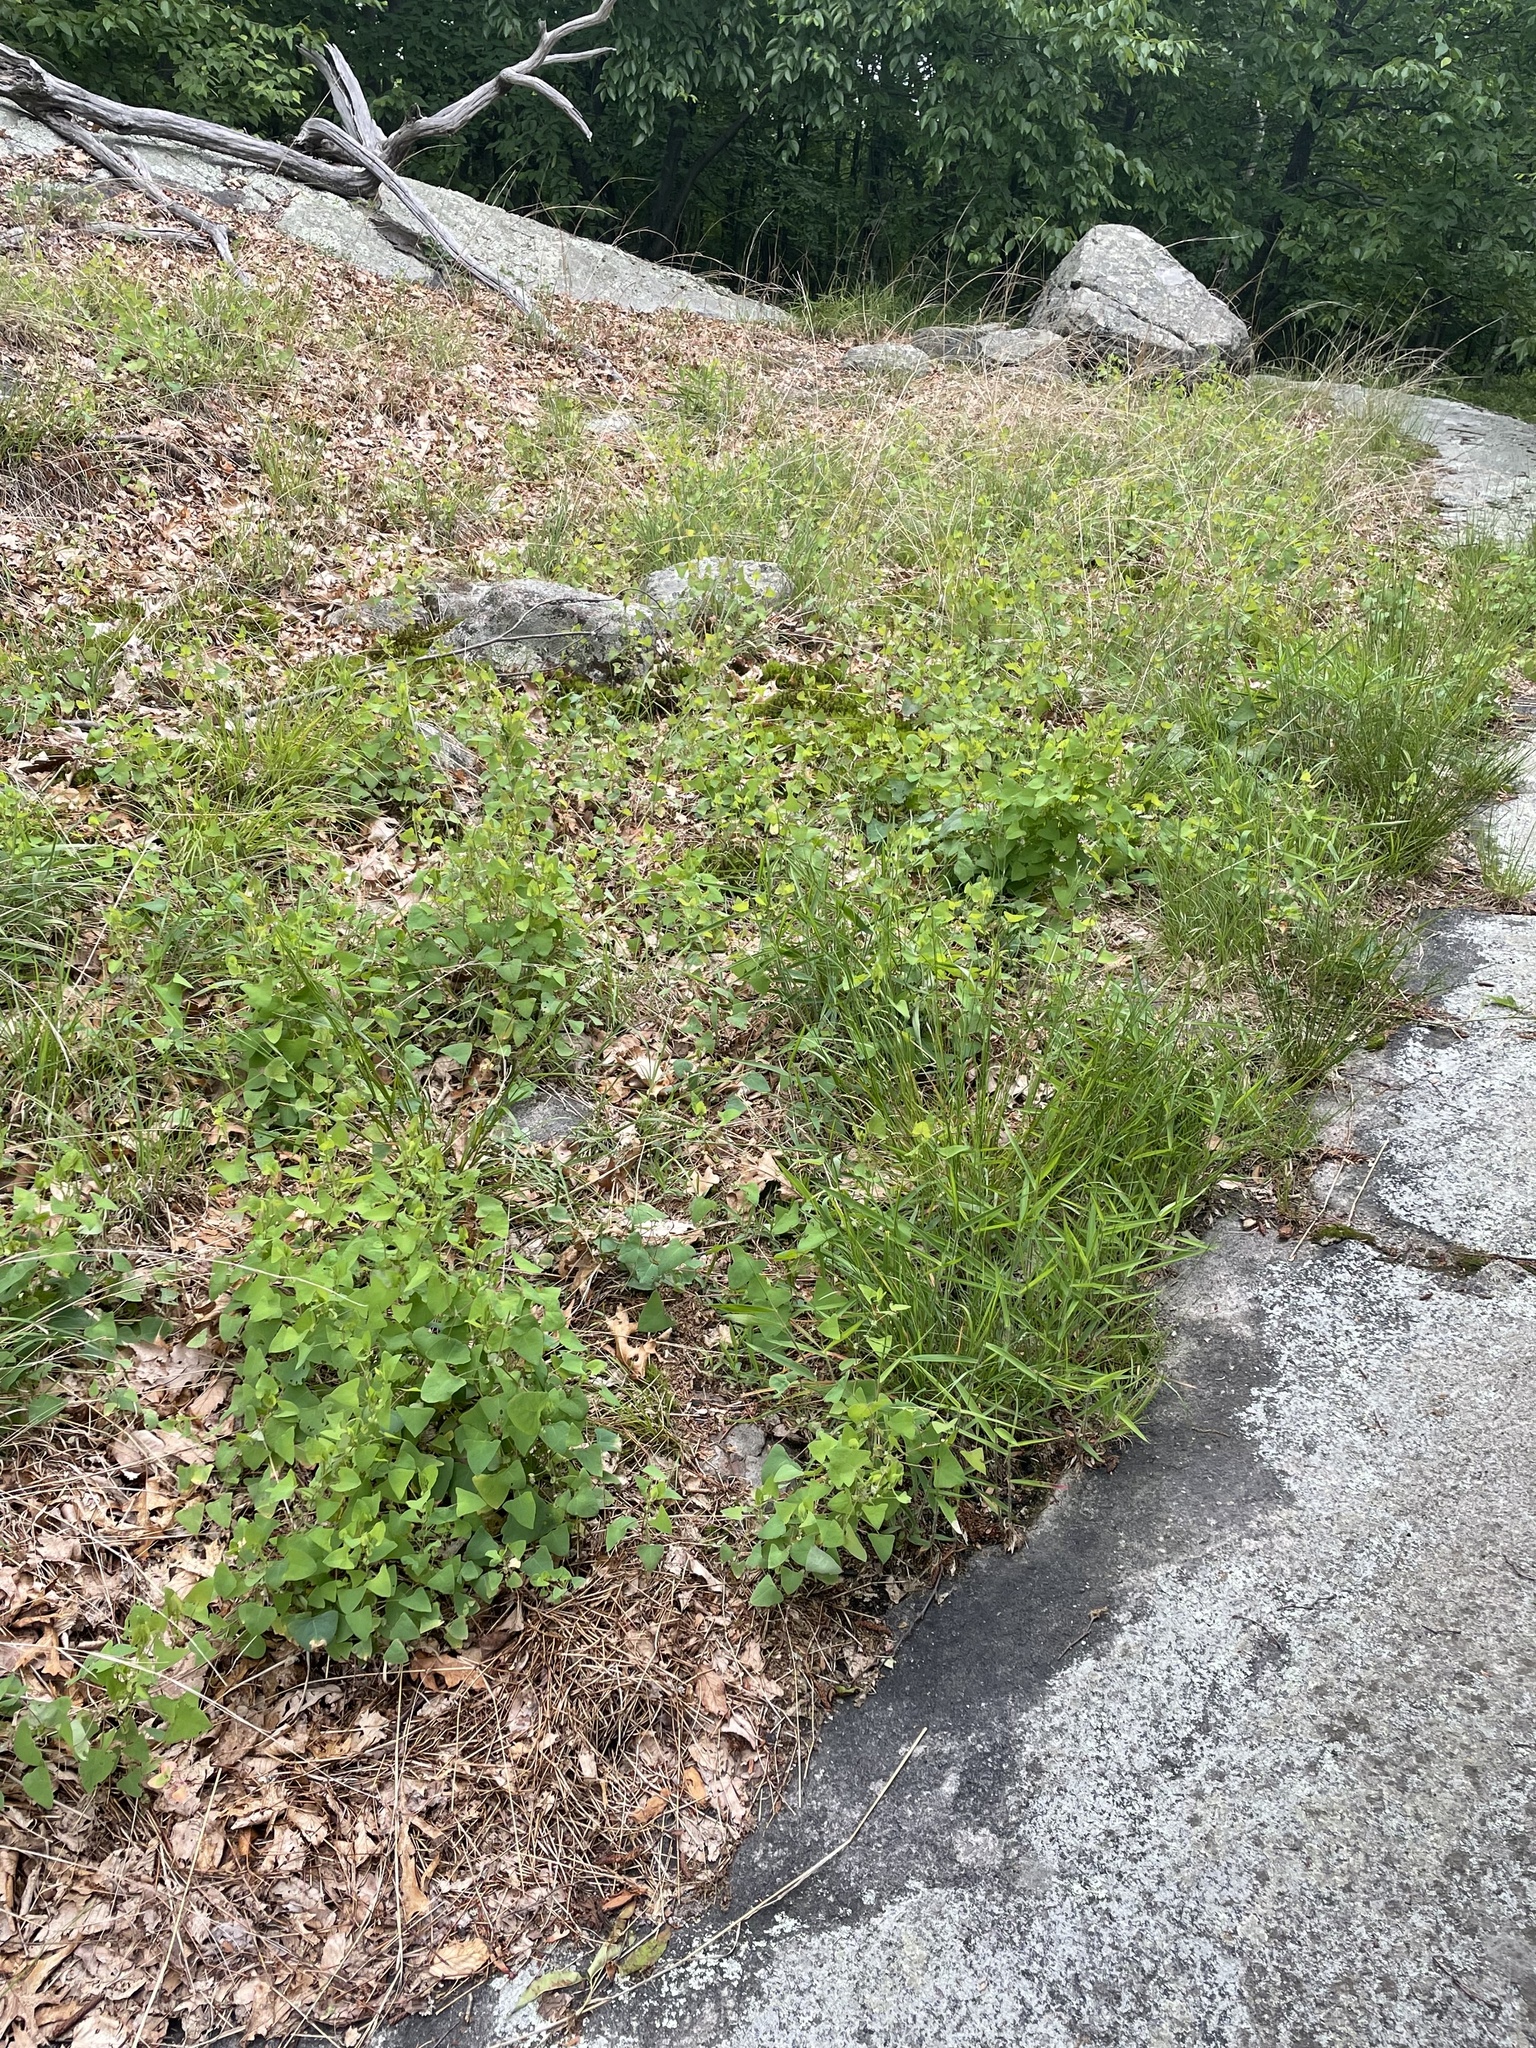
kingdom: Plantae
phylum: Tracheophyta
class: Magnoliopsida
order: Caryophyllales
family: Polygonaceae
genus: Persicaria
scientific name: Persicaria perfoliata
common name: Asiatic tearthumb
